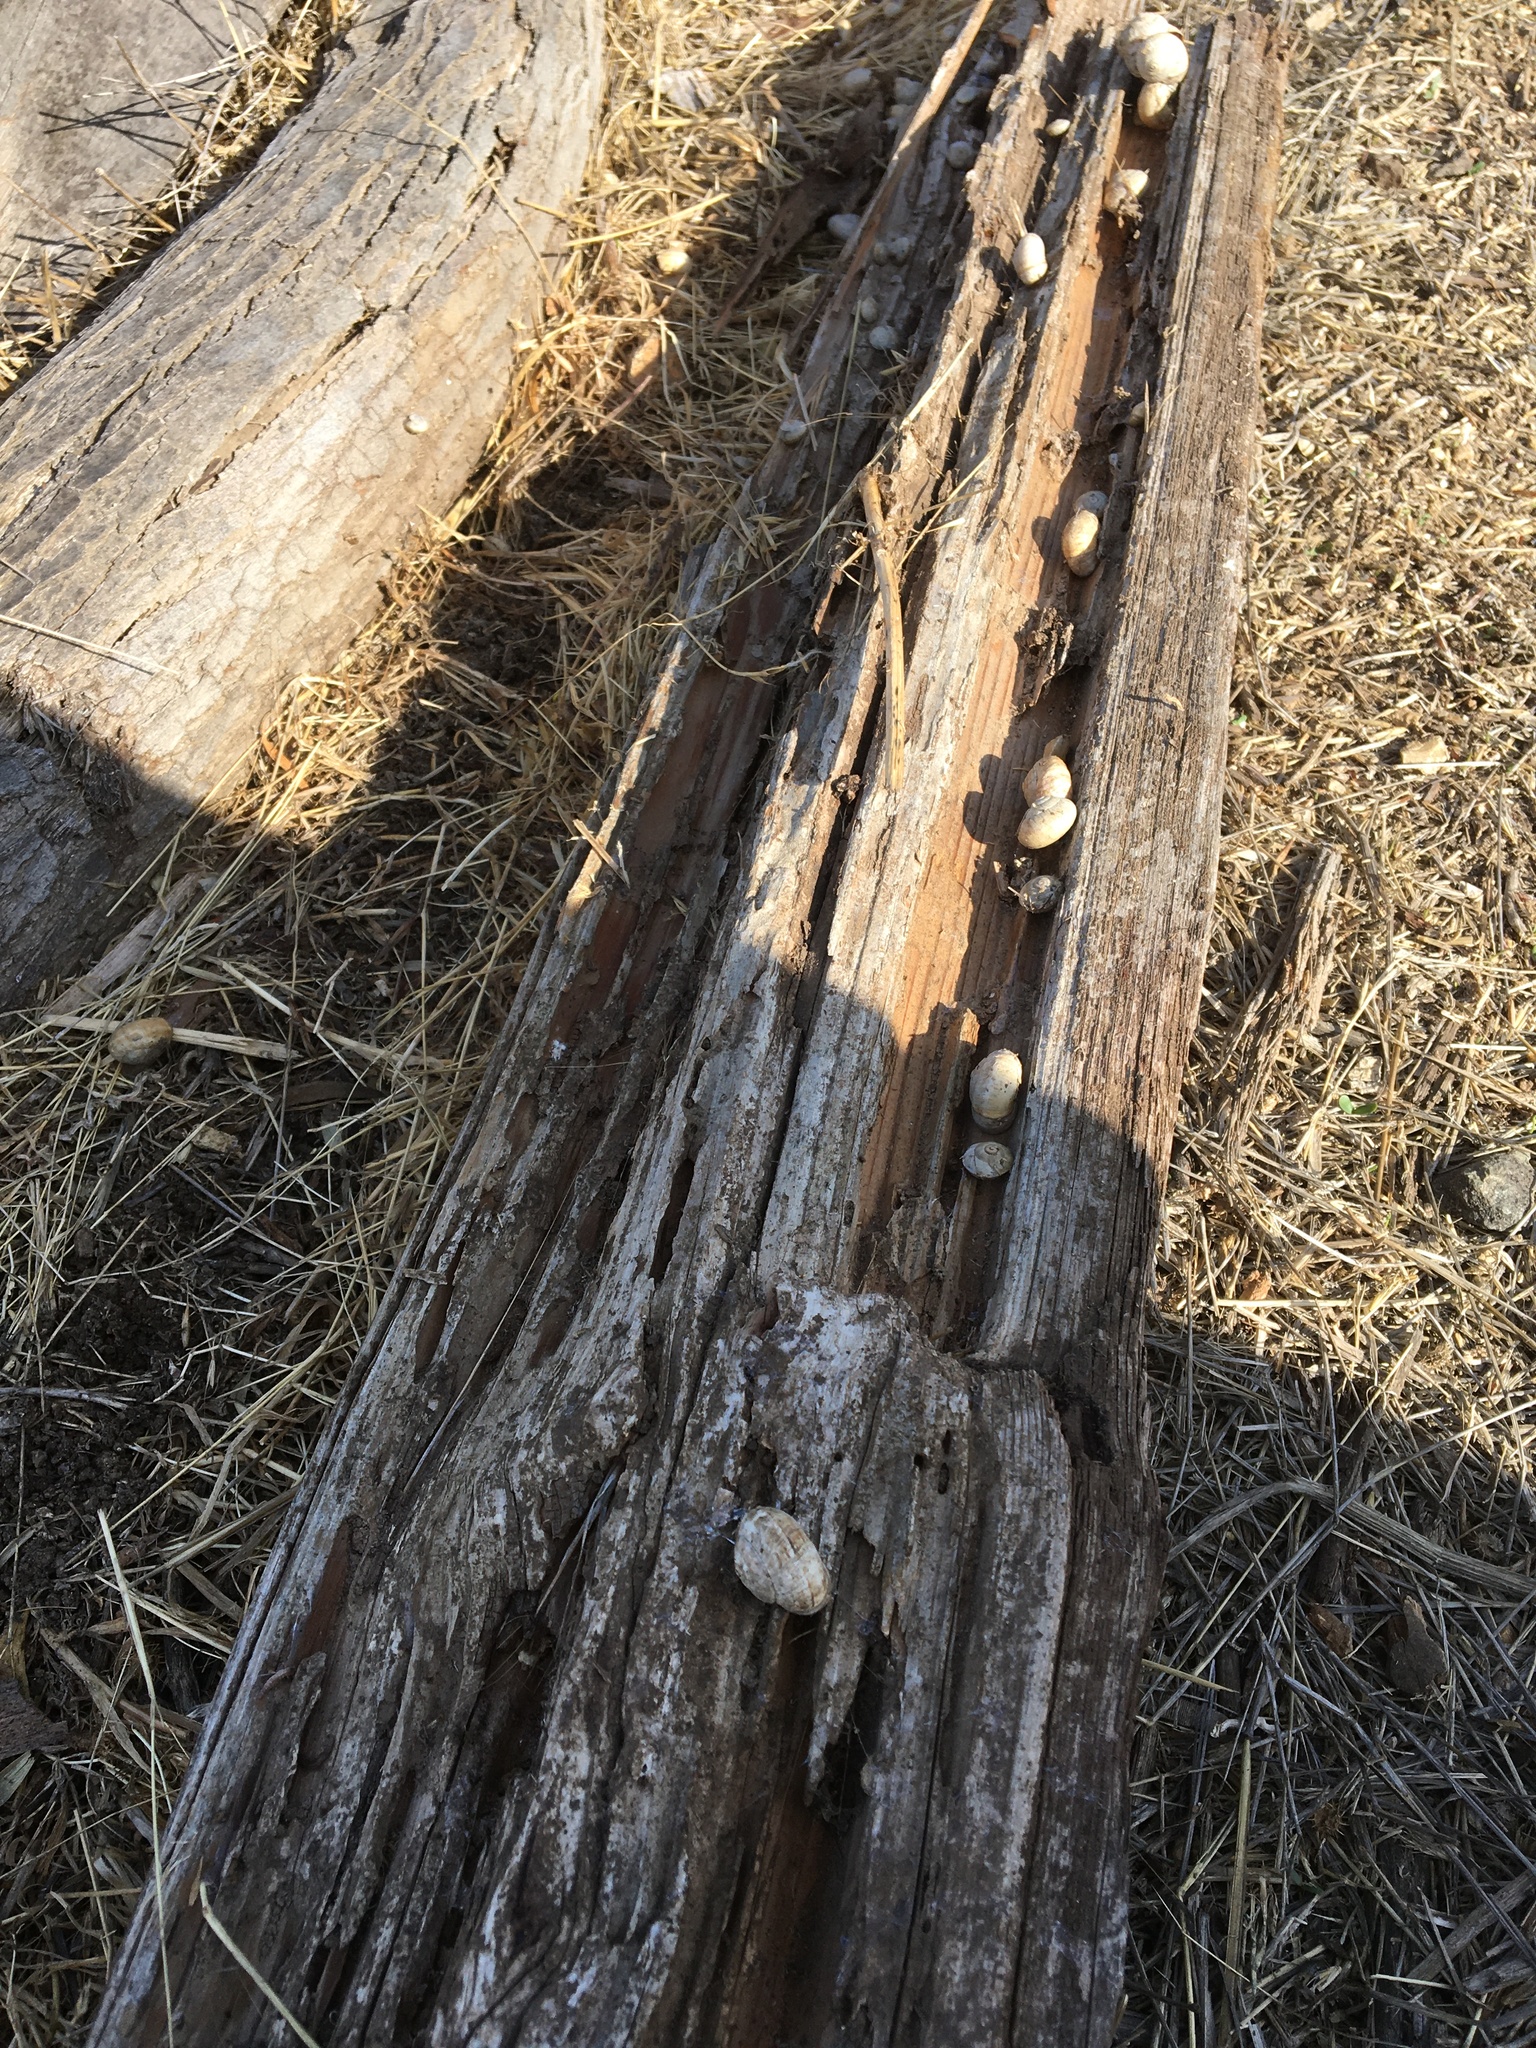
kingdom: Animalia
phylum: Mollusca
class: Gastropoda
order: Stylommatophora
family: Helicidae
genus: Theba
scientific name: Theba pisana
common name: White snail
